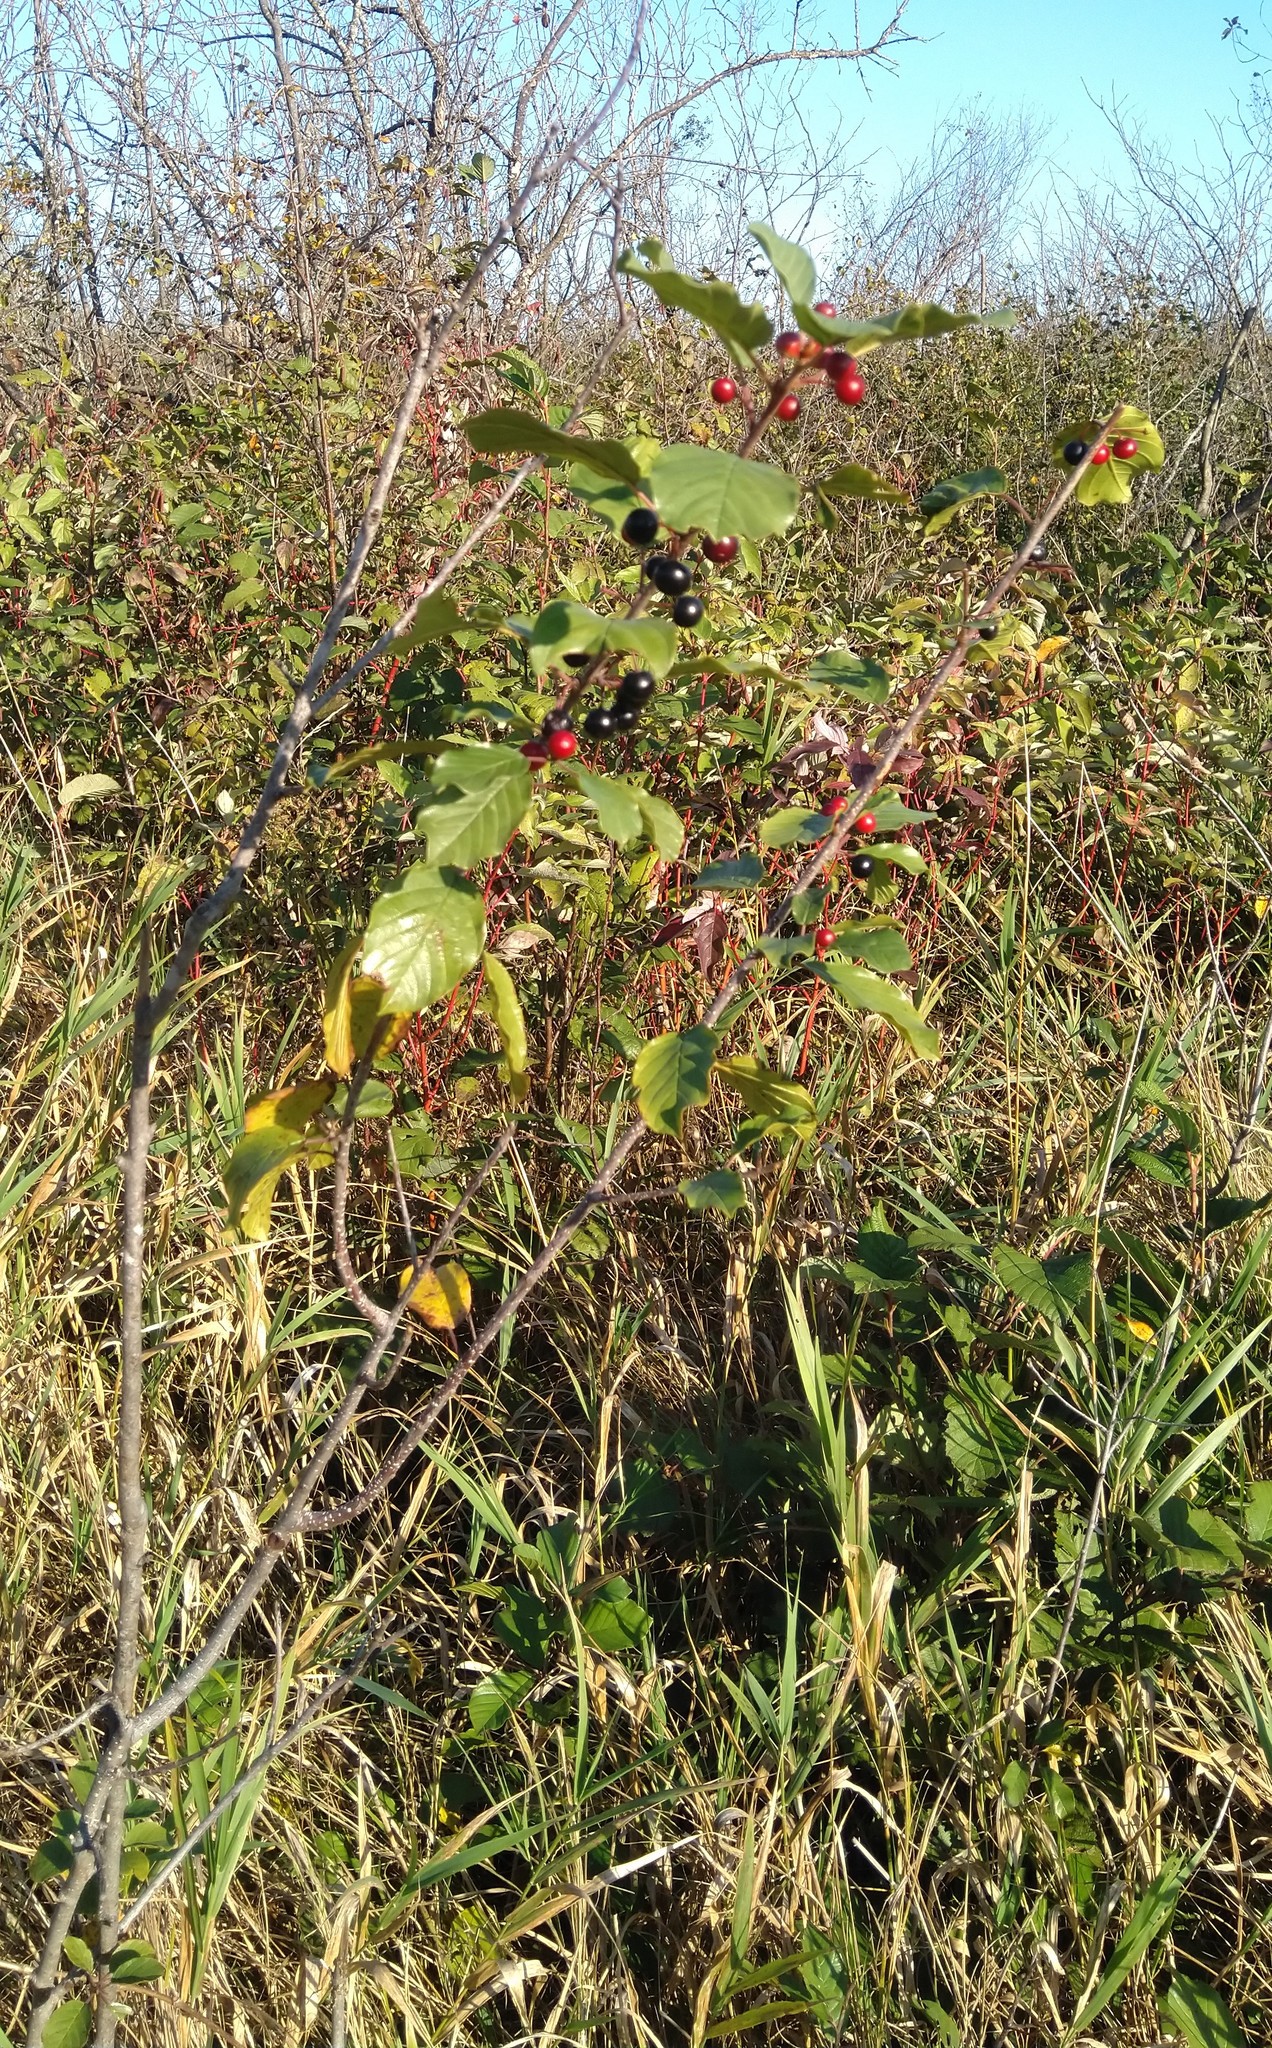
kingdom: Plantae
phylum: Tracheophyta
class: Magnoliopsida
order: Rosales
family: Rhamnaceae
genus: Frangula
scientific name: Frangula alnus
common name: Alder buckthorn
